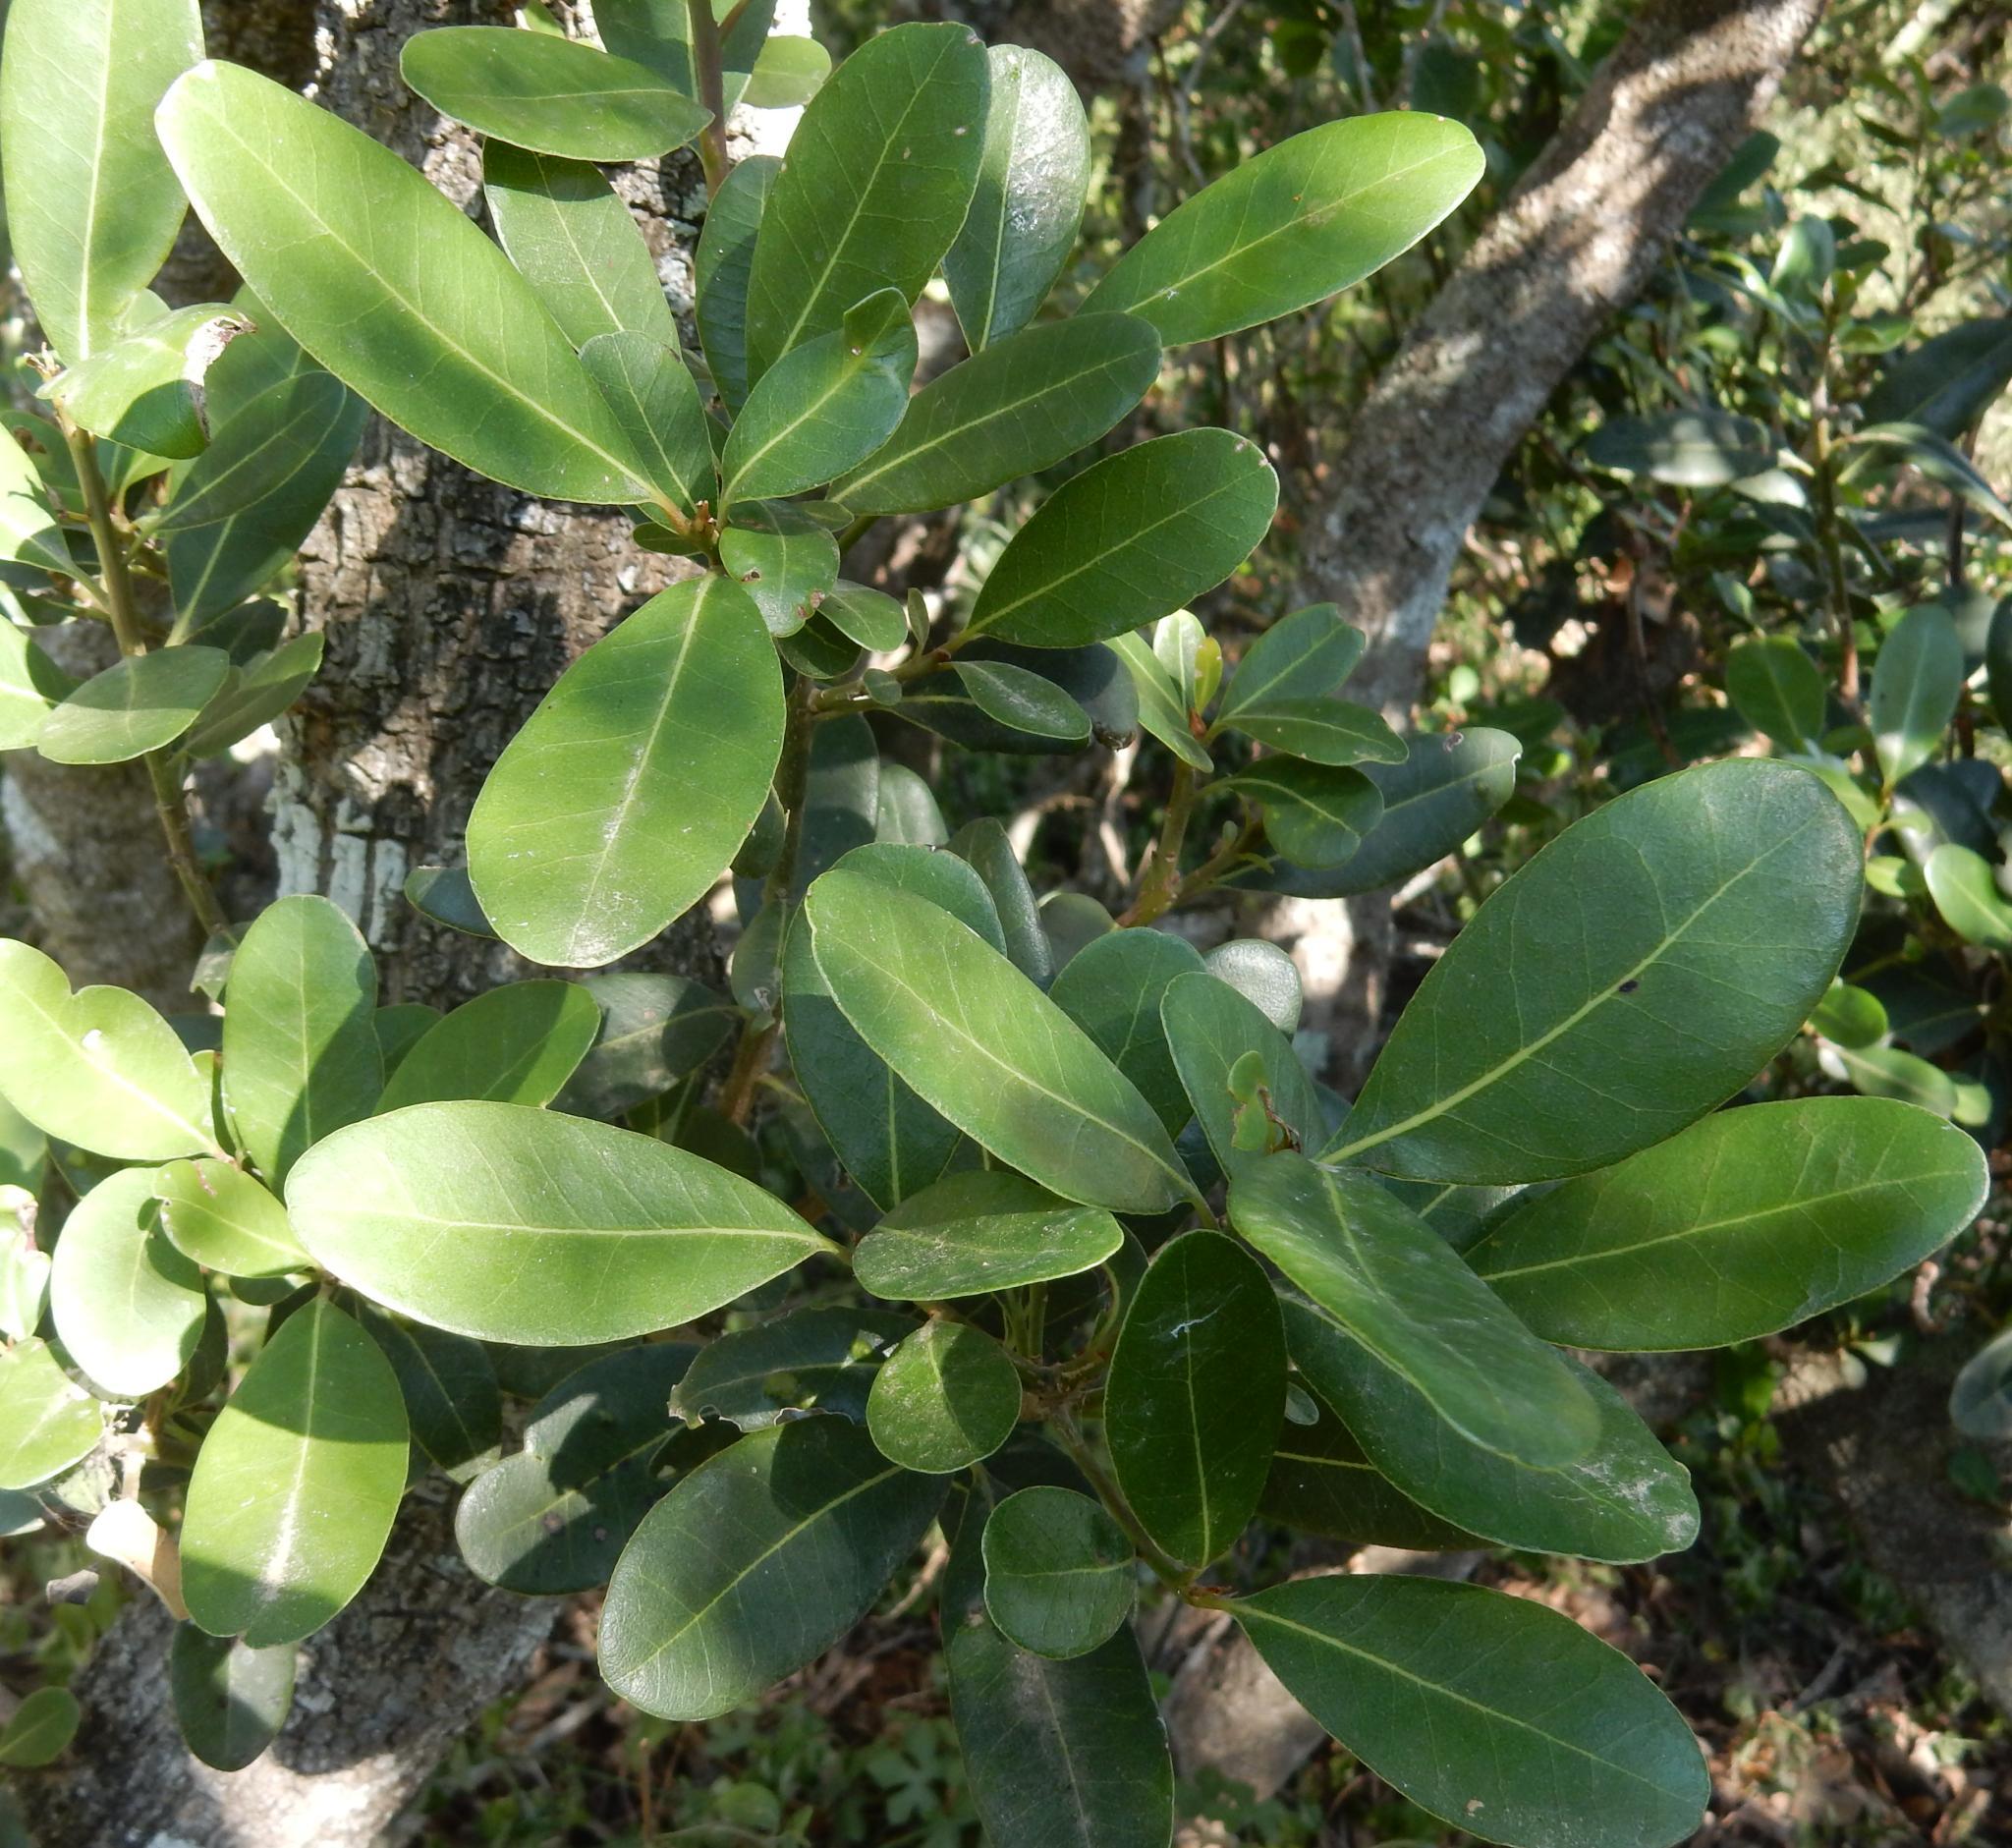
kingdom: Plantae
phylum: Tracheophyta
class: Magnoliopsida
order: Ericales
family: Sapotaceae
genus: Sideroxylon
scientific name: Sideroxylon inerme
